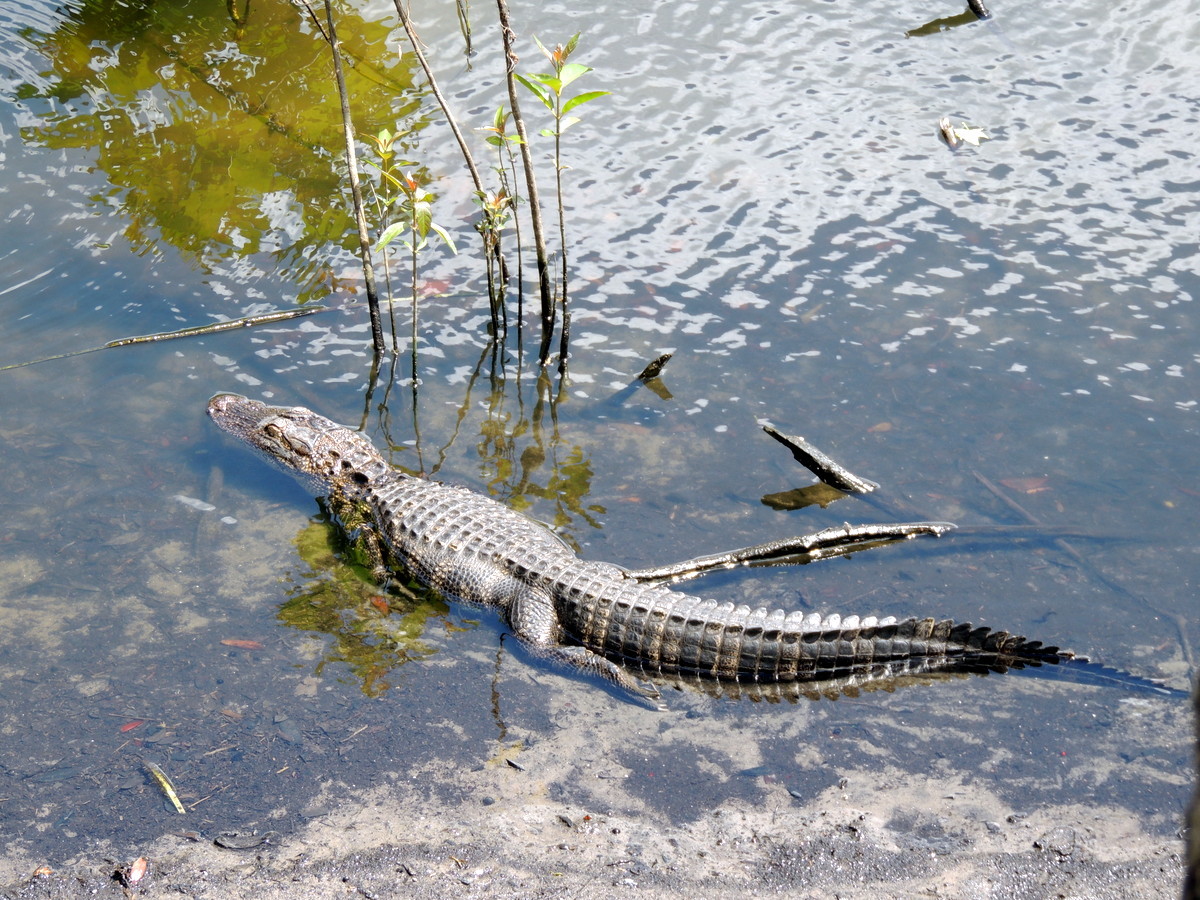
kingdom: Animalia
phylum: Chordata
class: Crocodylia
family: Alligatoridae
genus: Alligator
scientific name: Alligator mississippiensis
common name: American alligator
